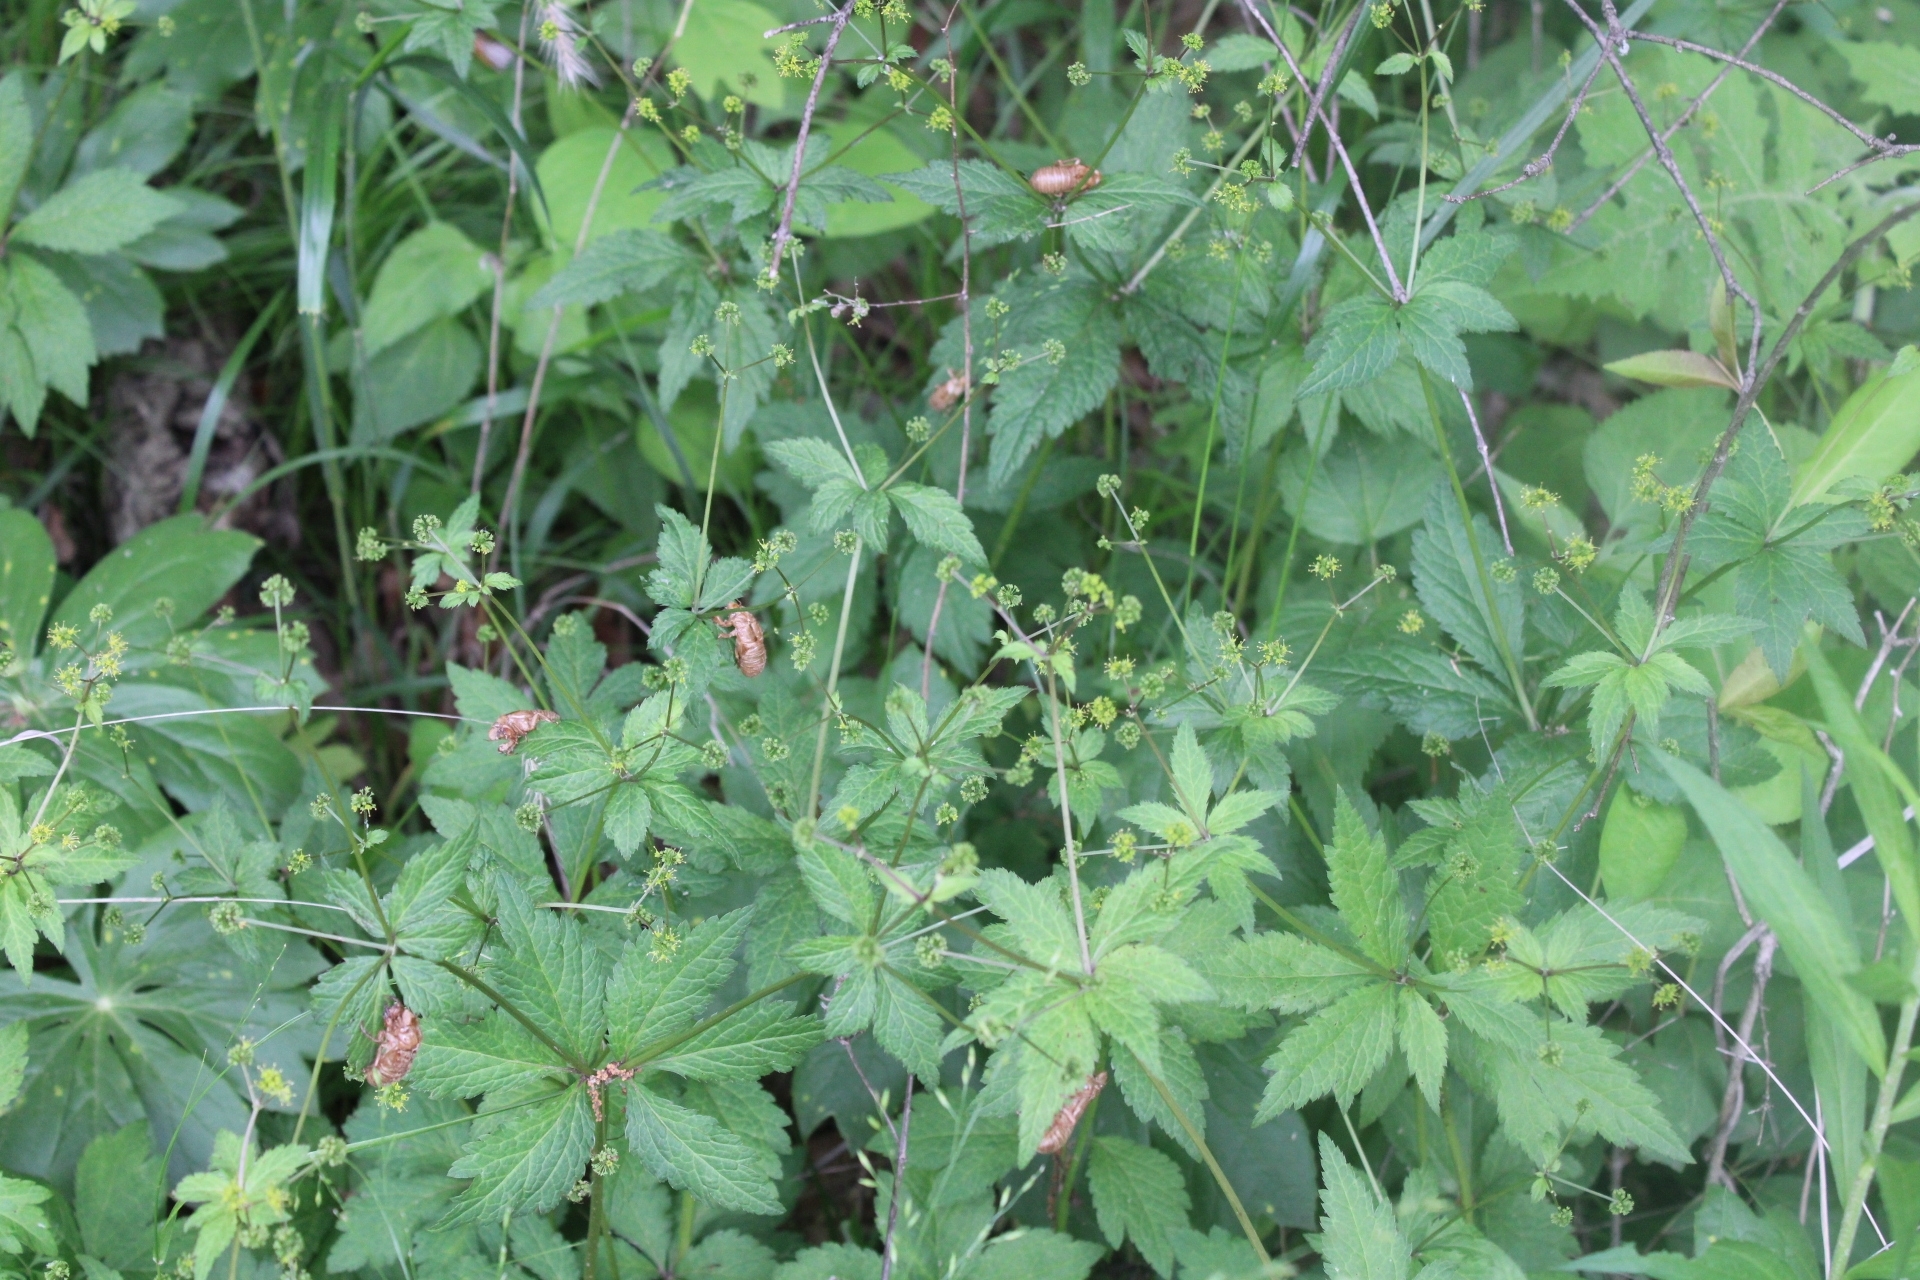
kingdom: Animalia
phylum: Arthropoda
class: Insecta
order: Hemiptera
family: Cicadidae
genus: Magicicada
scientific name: Magicicada
